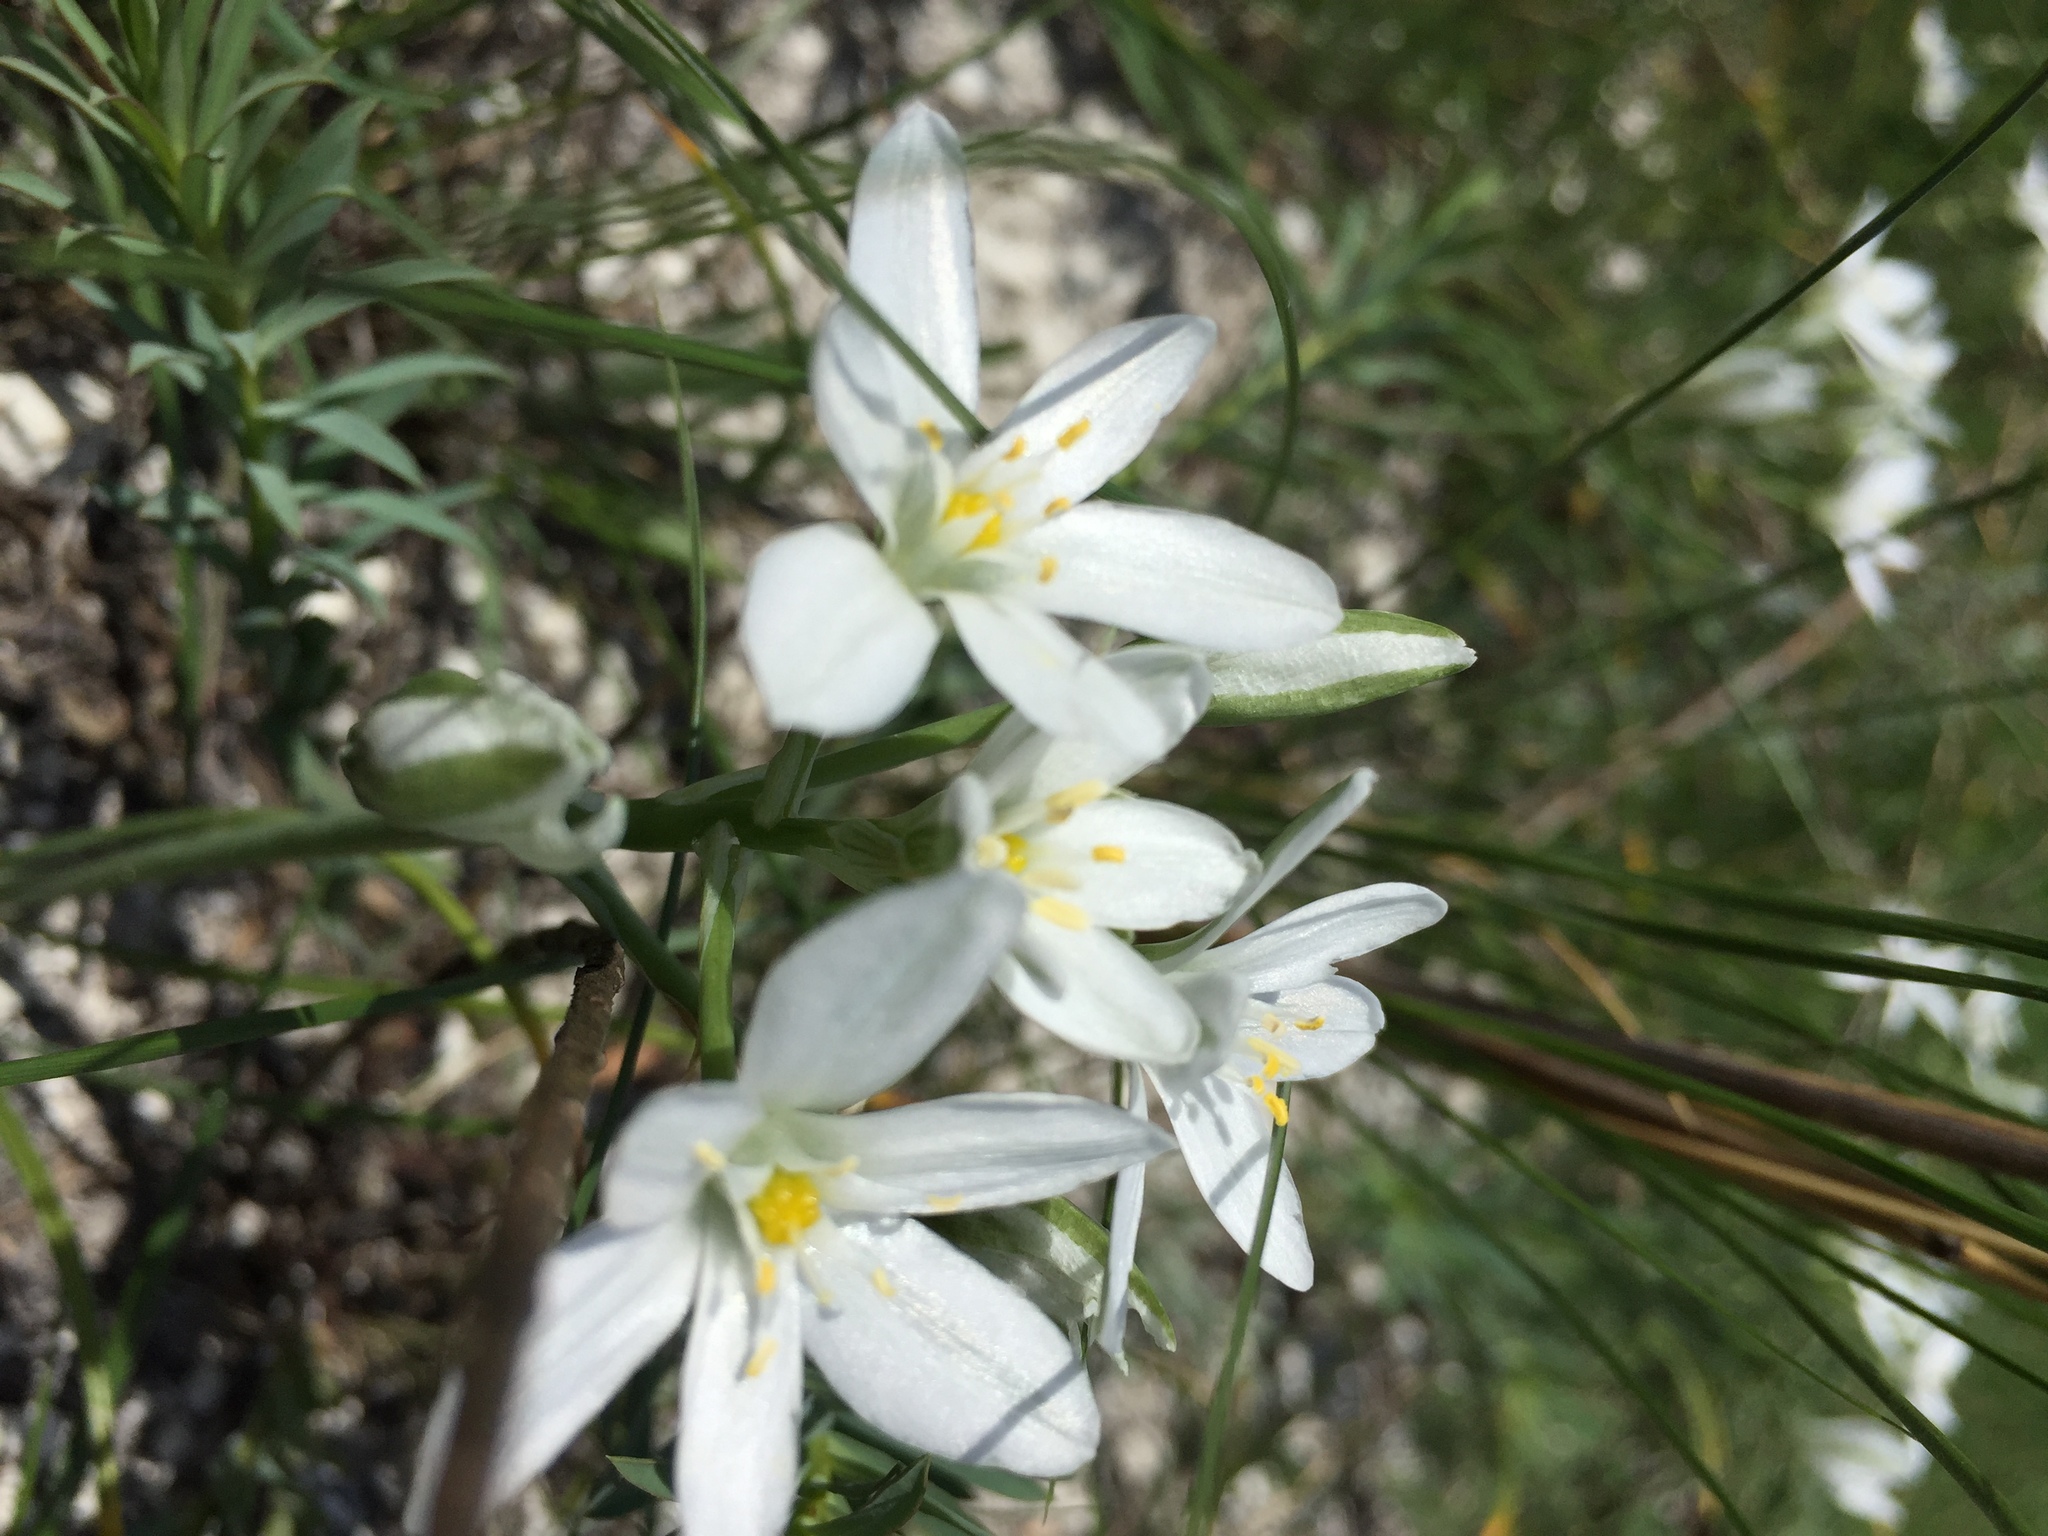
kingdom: Plantae
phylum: Tracheophyta
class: Liliopsida
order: Asparagales
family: Asparagaceae
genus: Ornithogalum
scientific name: Ornithogalum orthophyllum
